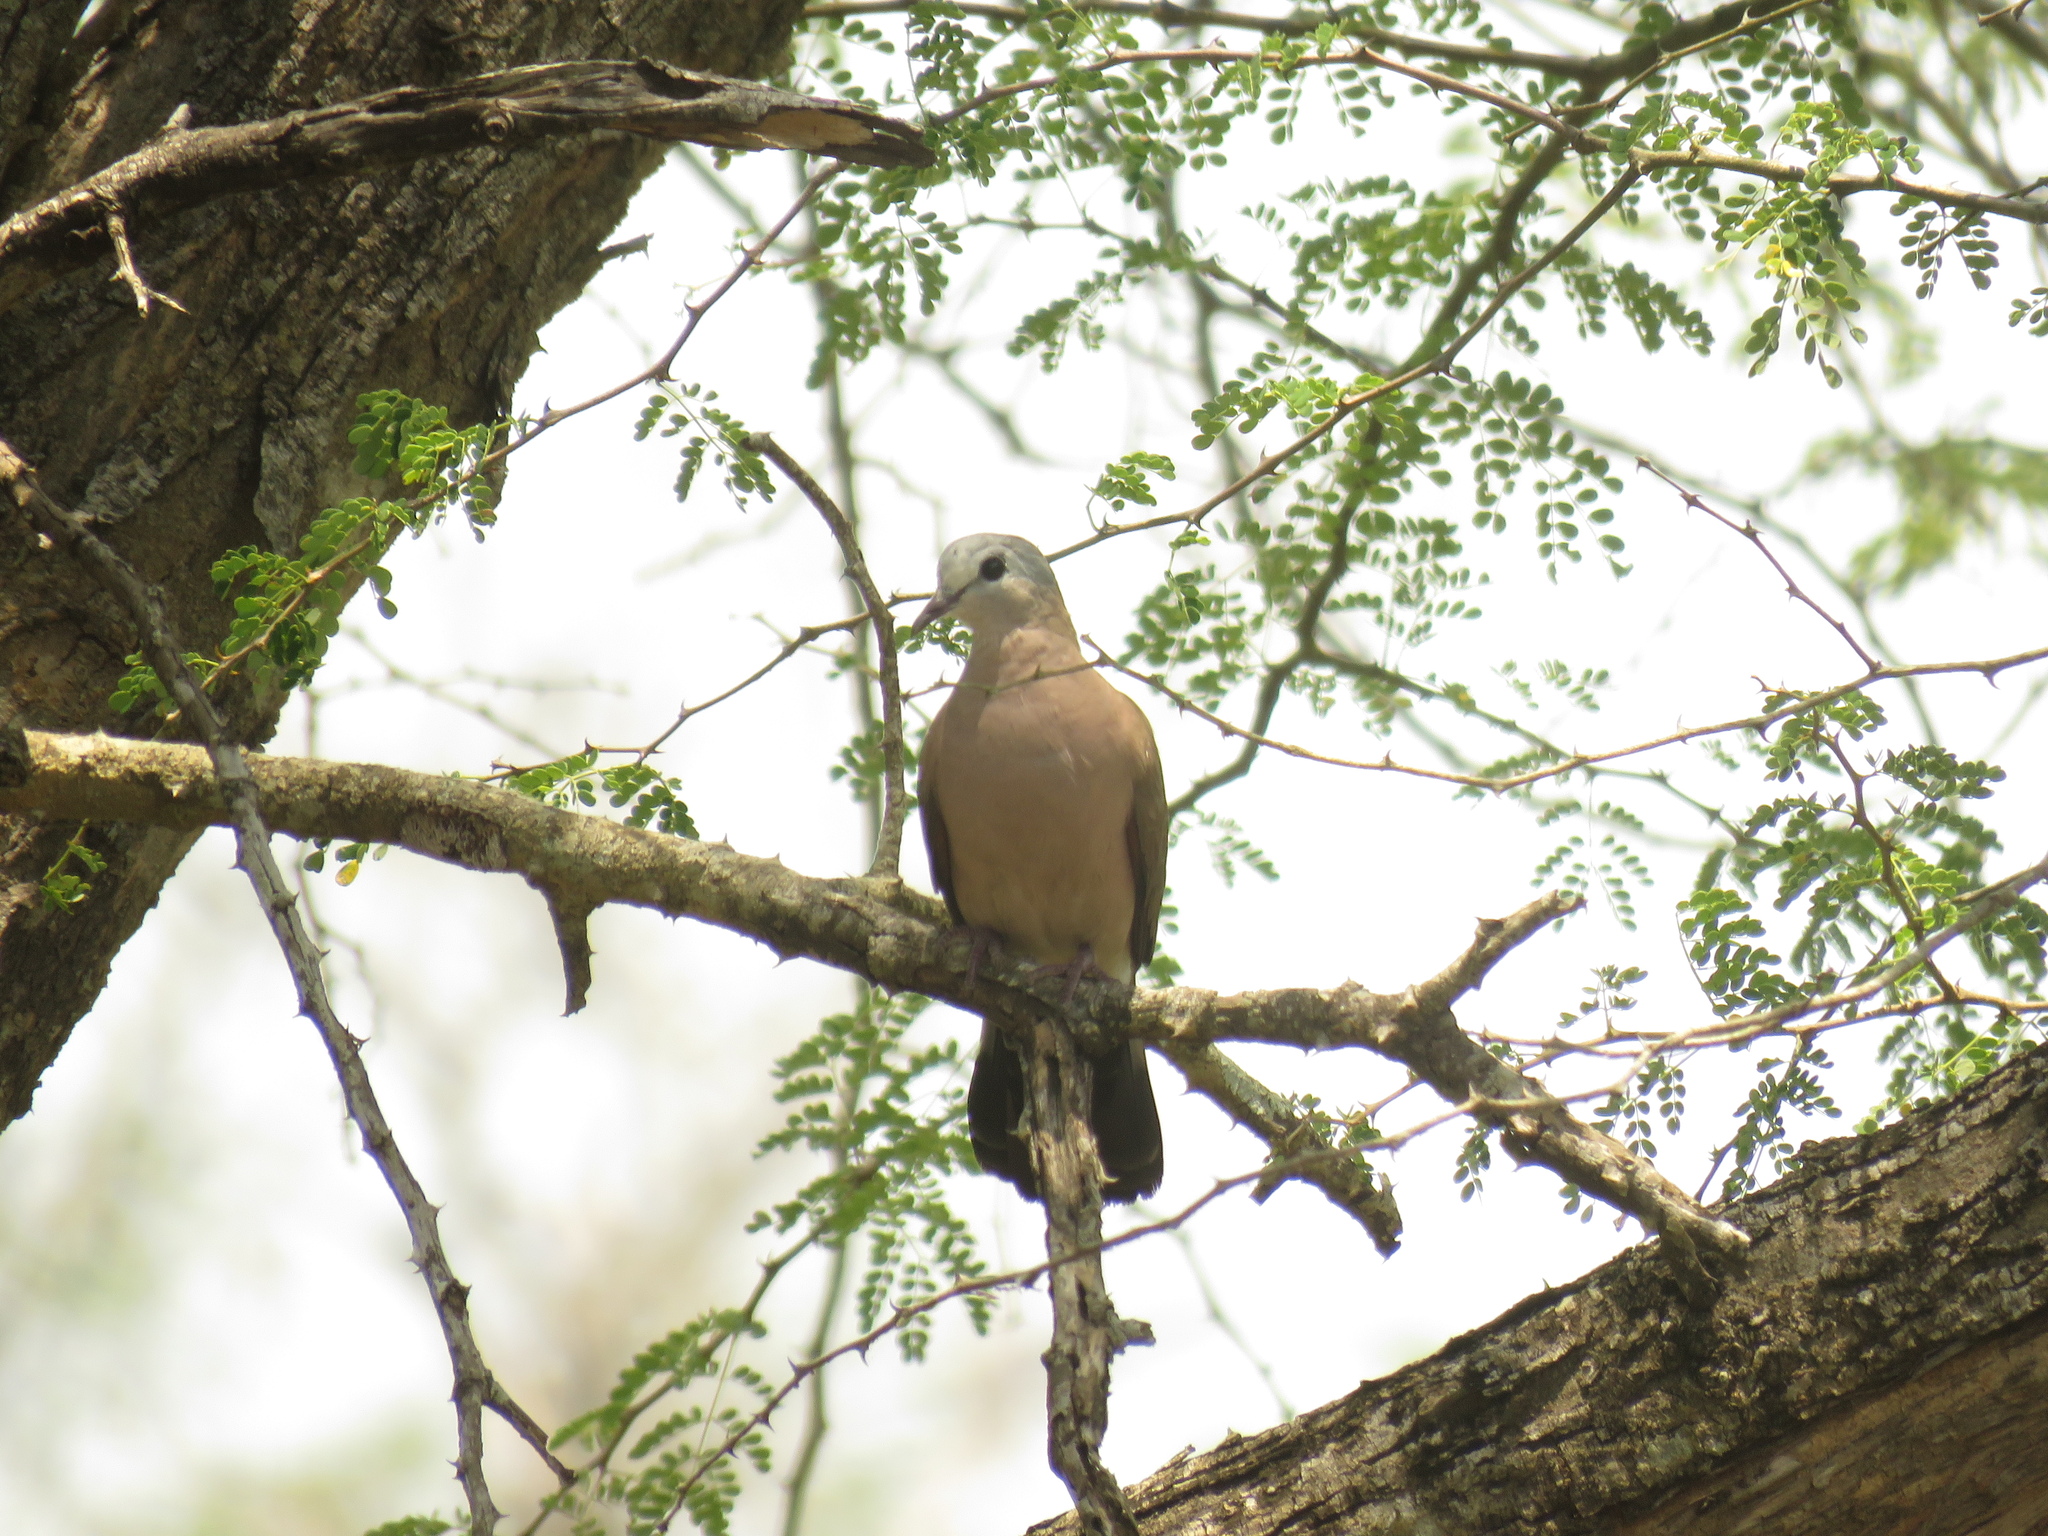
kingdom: Animalia
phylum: Chordata
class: Aves
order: Columbiformes
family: Columbidae
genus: Turtur
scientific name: Turtur chalcospilos
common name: Emerald-spotted wood dove
